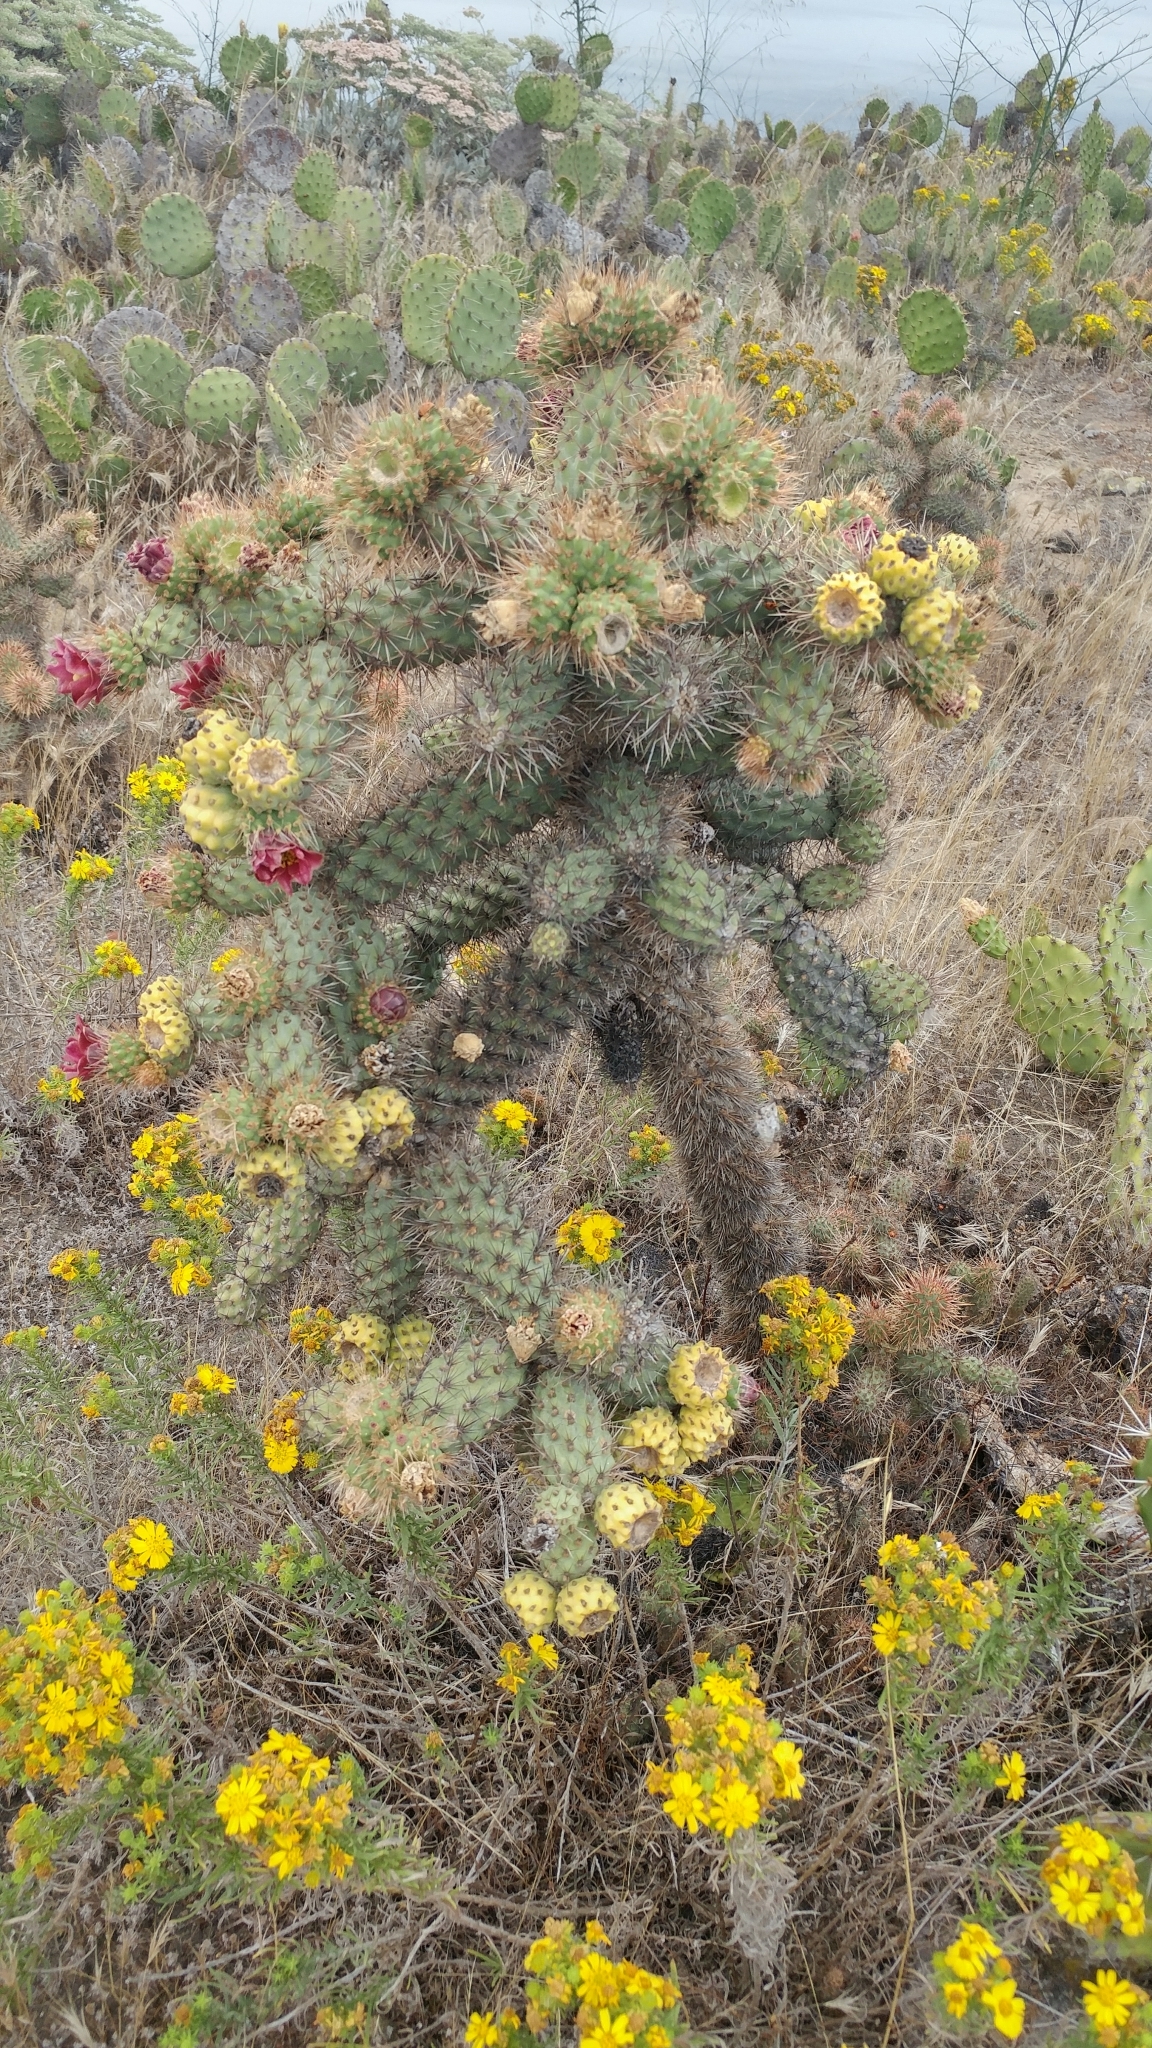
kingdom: Plantae
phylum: Tracheophyta
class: Magnoliopsida
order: Caryophyllales
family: Cactaceae
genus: Cylindropuntia
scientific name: Cylindropuntia prolifera
